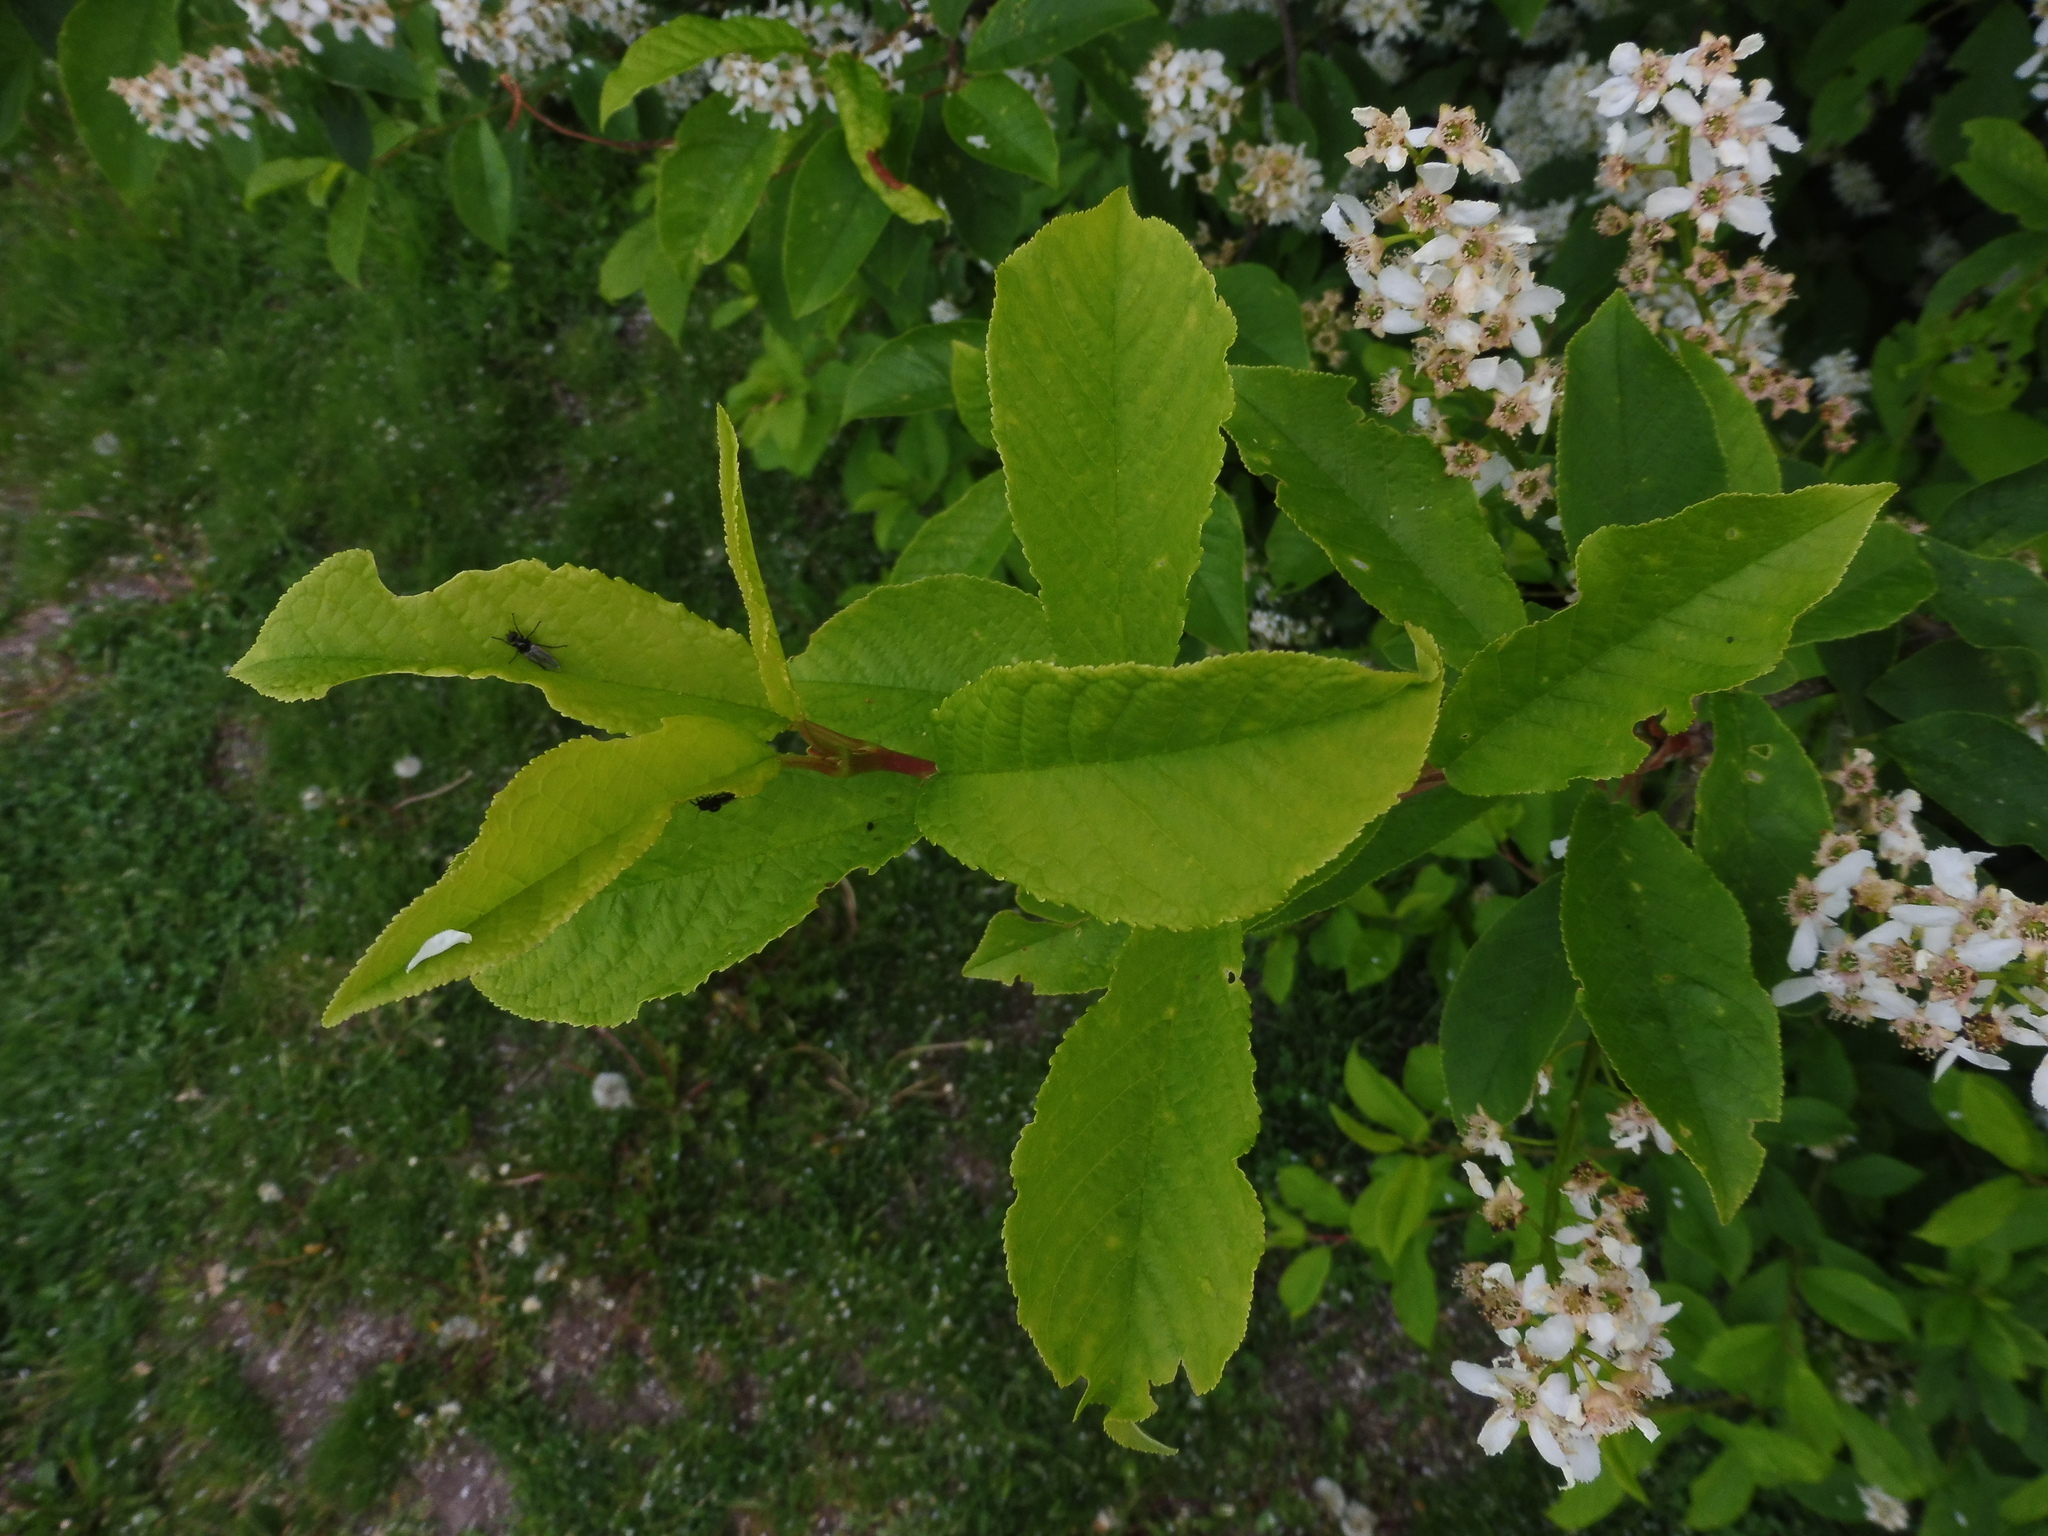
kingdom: Plantae
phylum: Tracheophyta
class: Magnoliopsida
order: Rosales
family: Rosaceae
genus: Prunus
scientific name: Prunus padus
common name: Bird cherry
